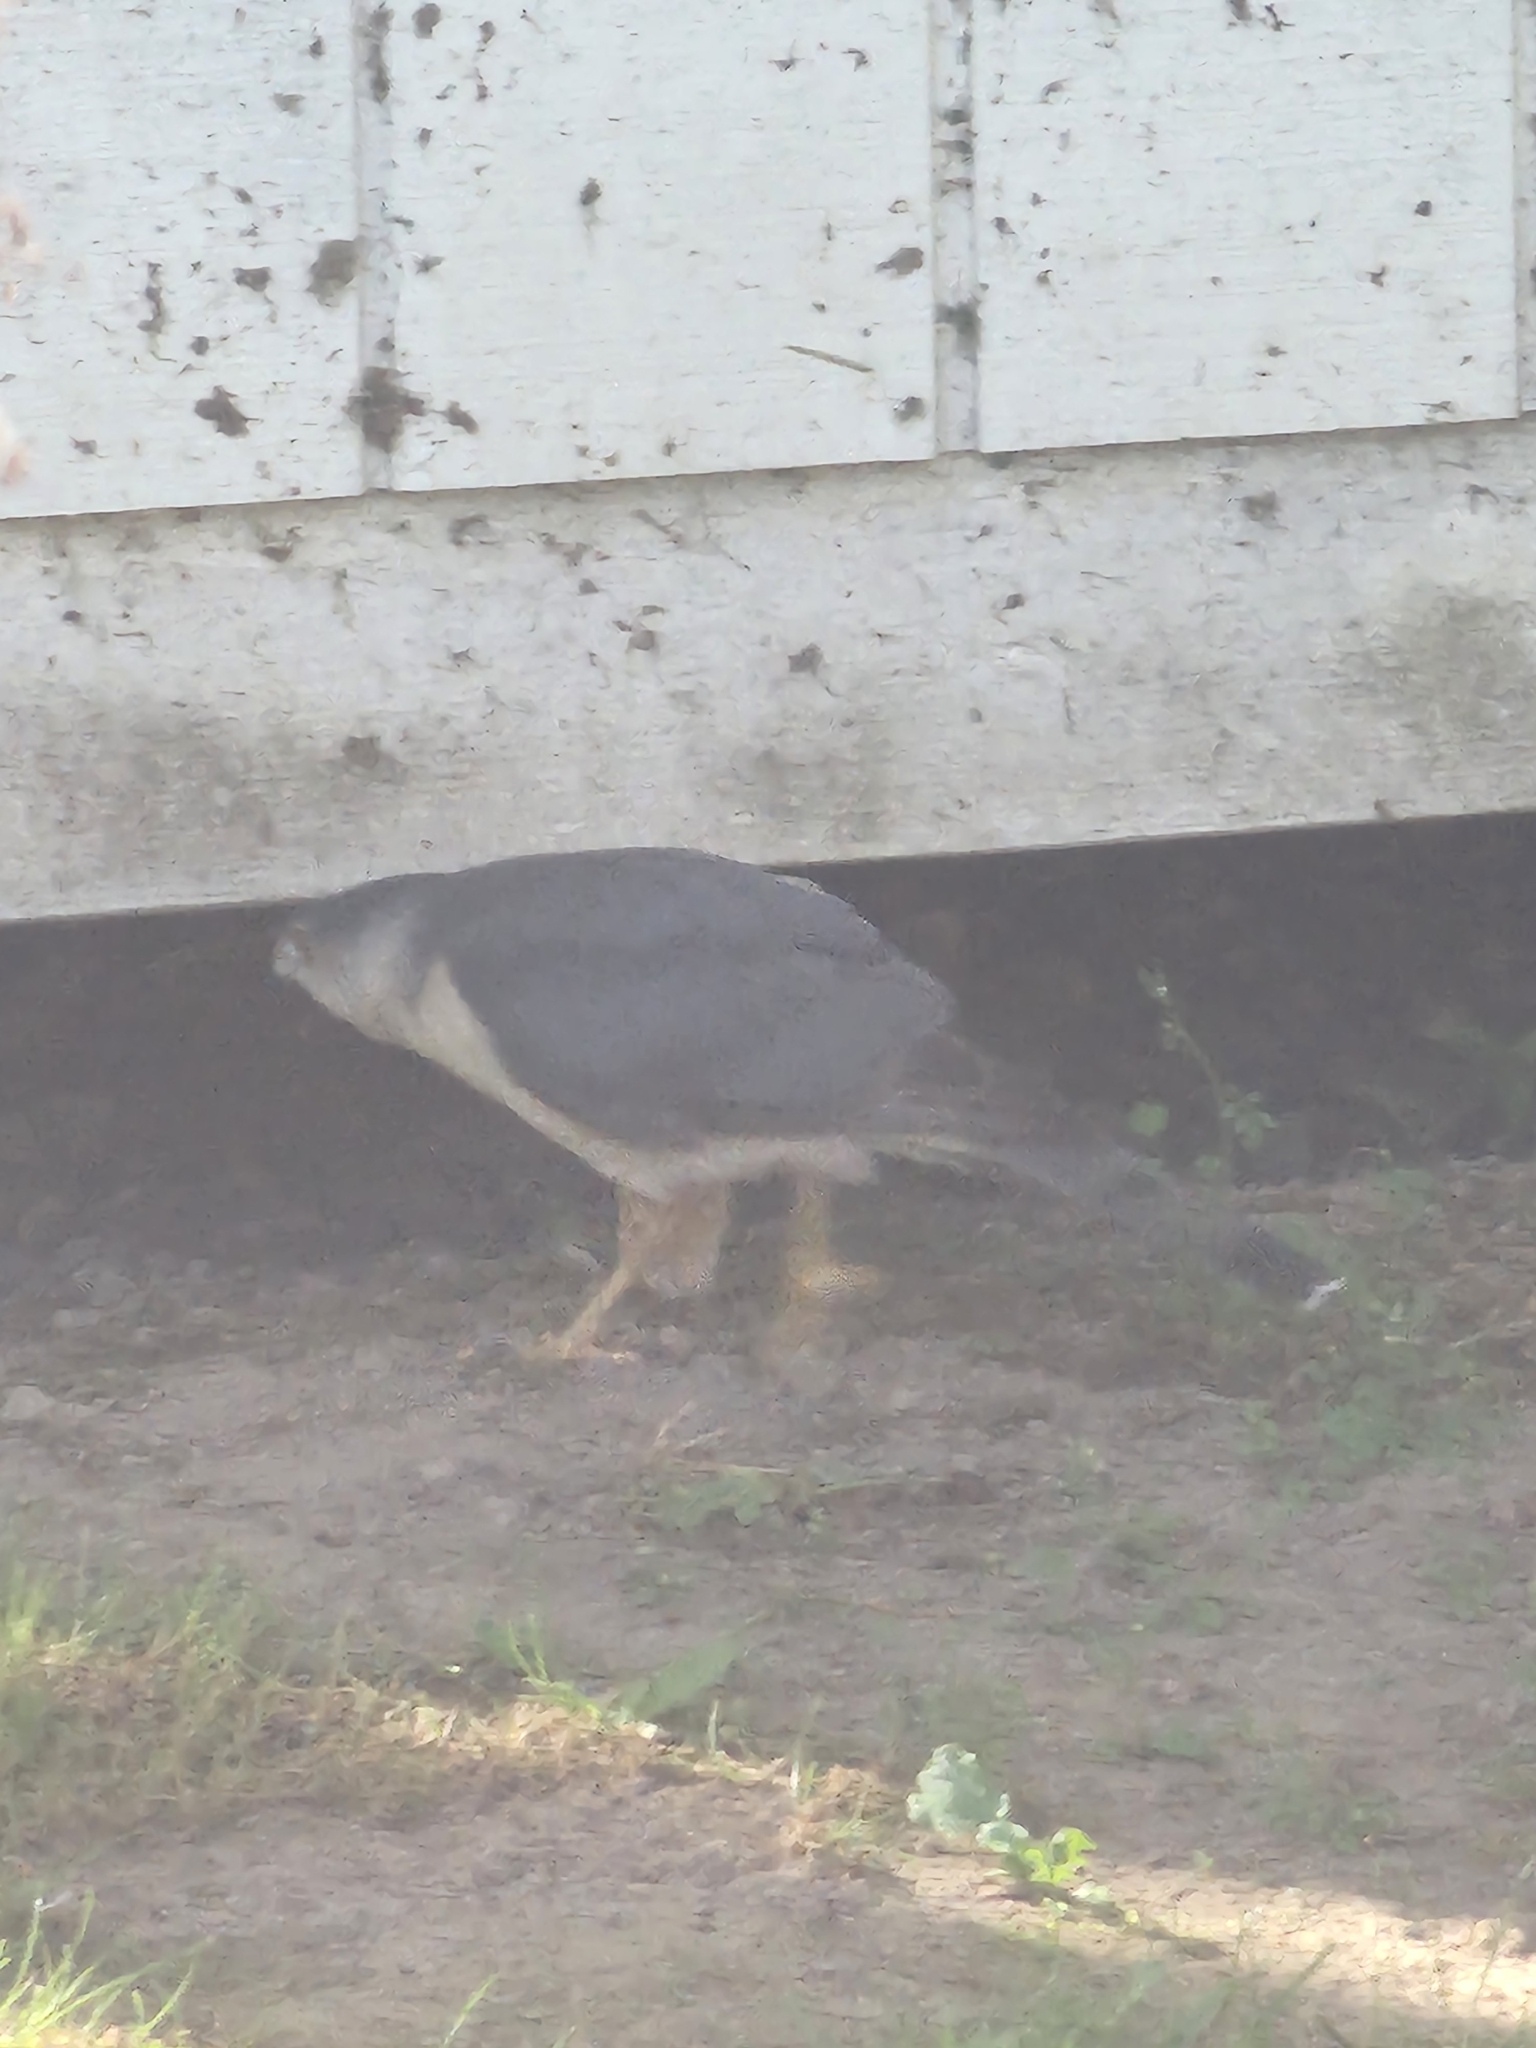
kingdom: Animalia
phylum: Chordata
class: Aves
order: Accipitriformes
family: Accipitridae
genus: Accipiter
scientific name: Accipiter cooperii
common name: Cooper's hawk
